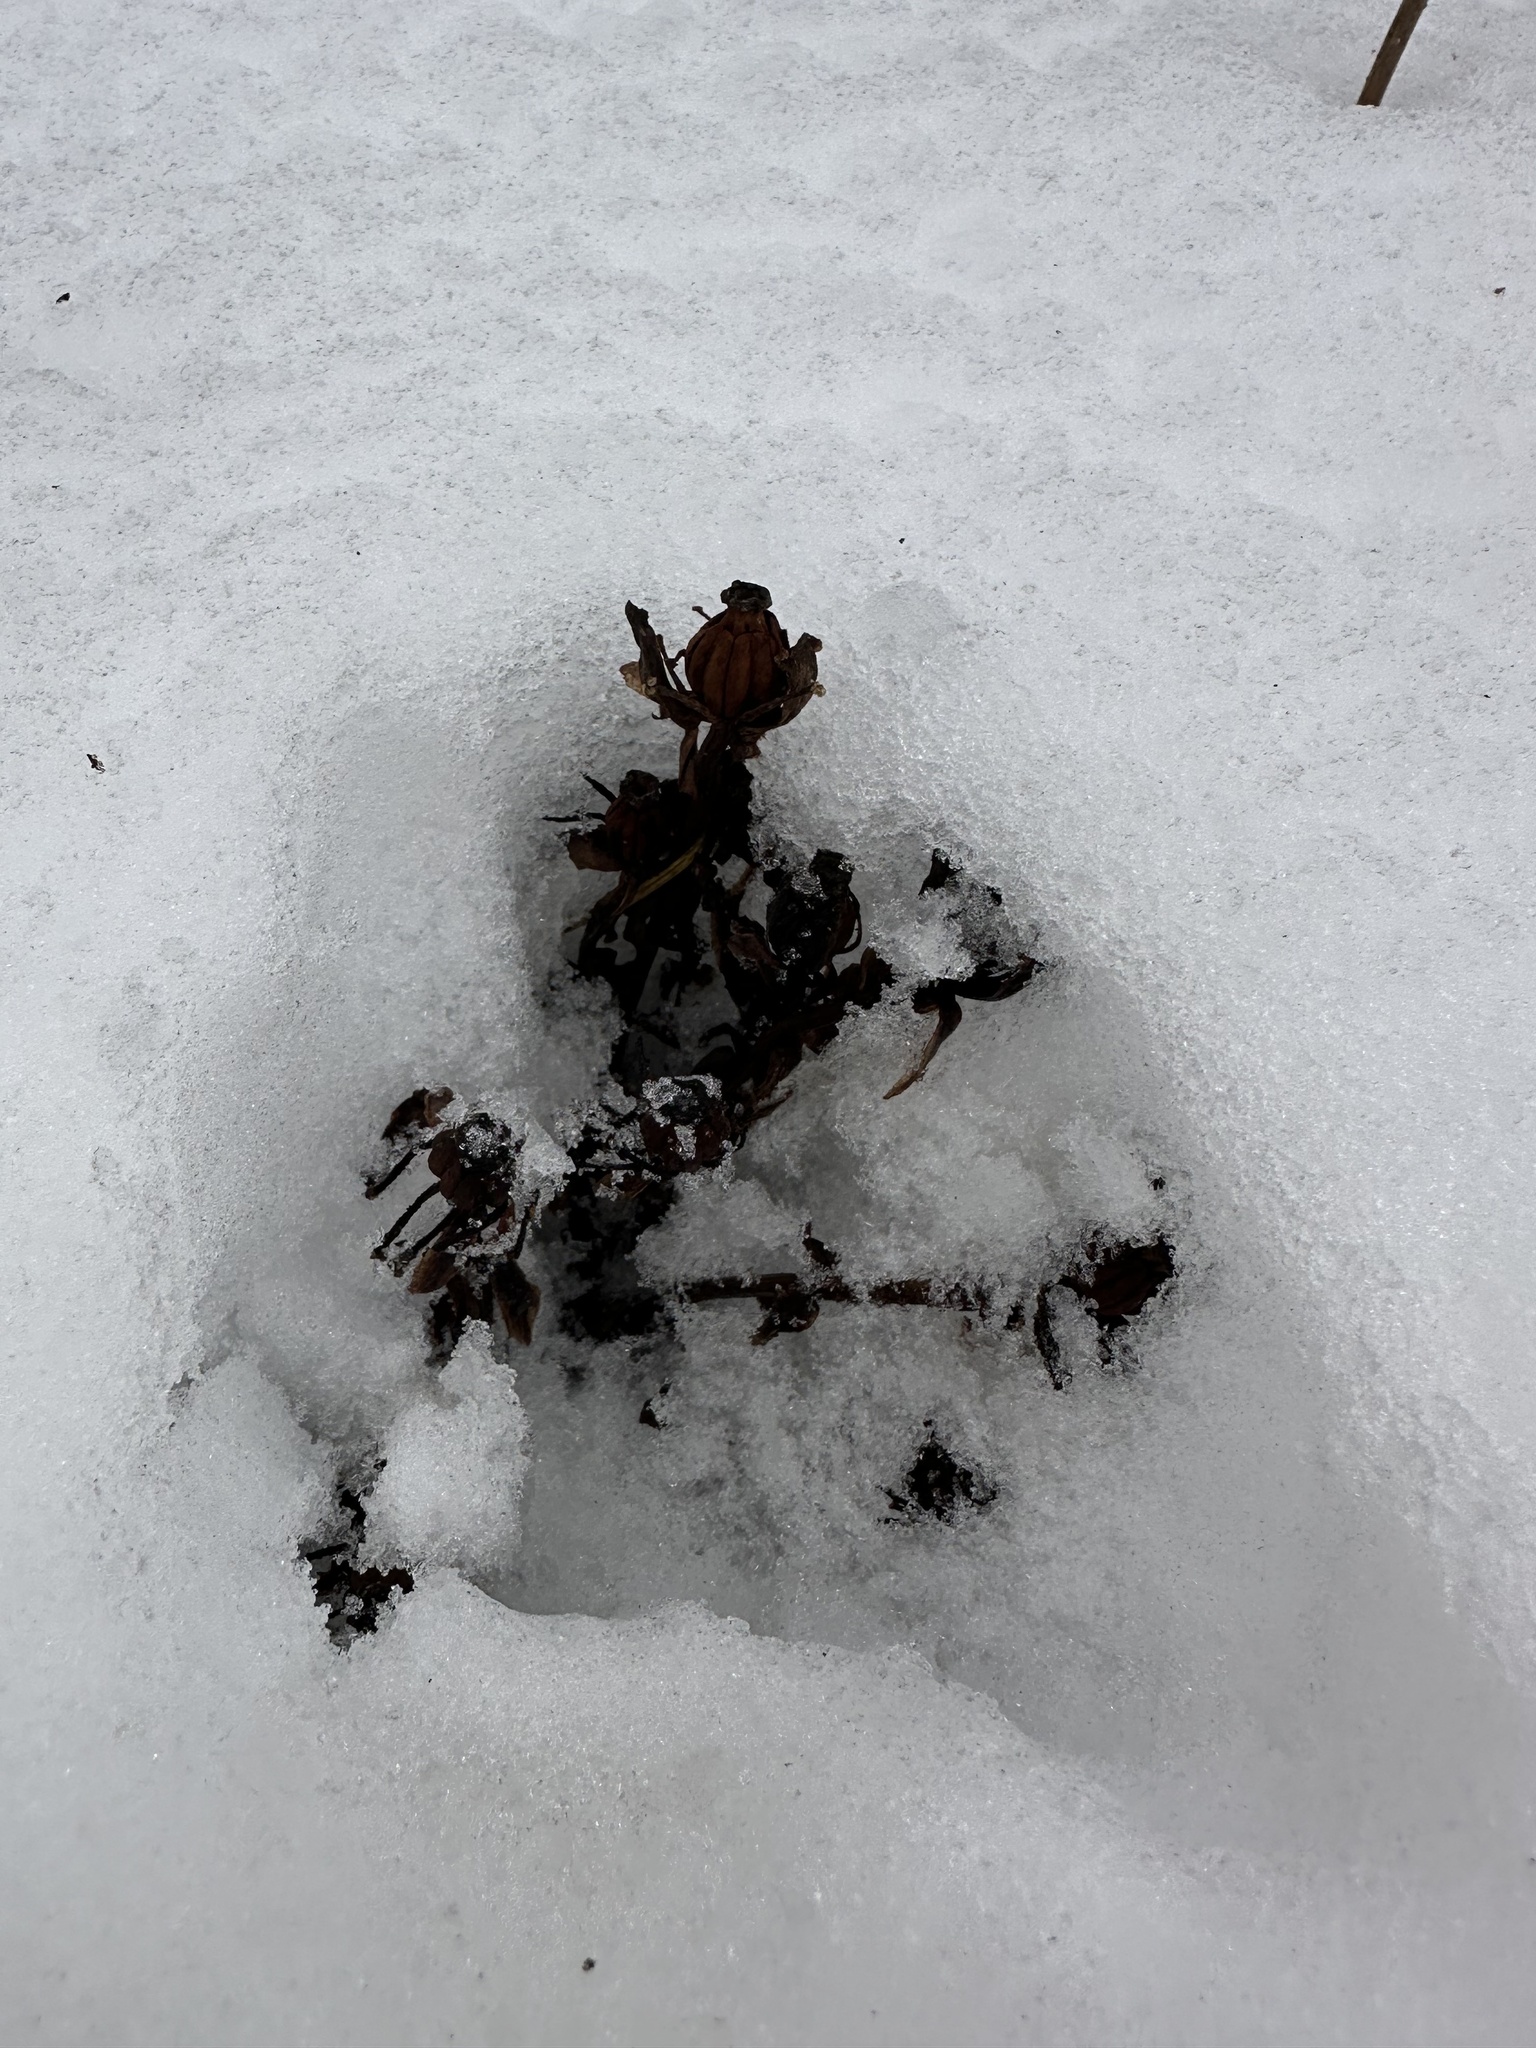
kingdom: Plantae
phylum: Tracheophyta
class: Magnoliopsida
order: Ericales
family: Ericaceae
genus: Monotropa
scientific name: Monotropa uniflora
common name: Convulsion root
